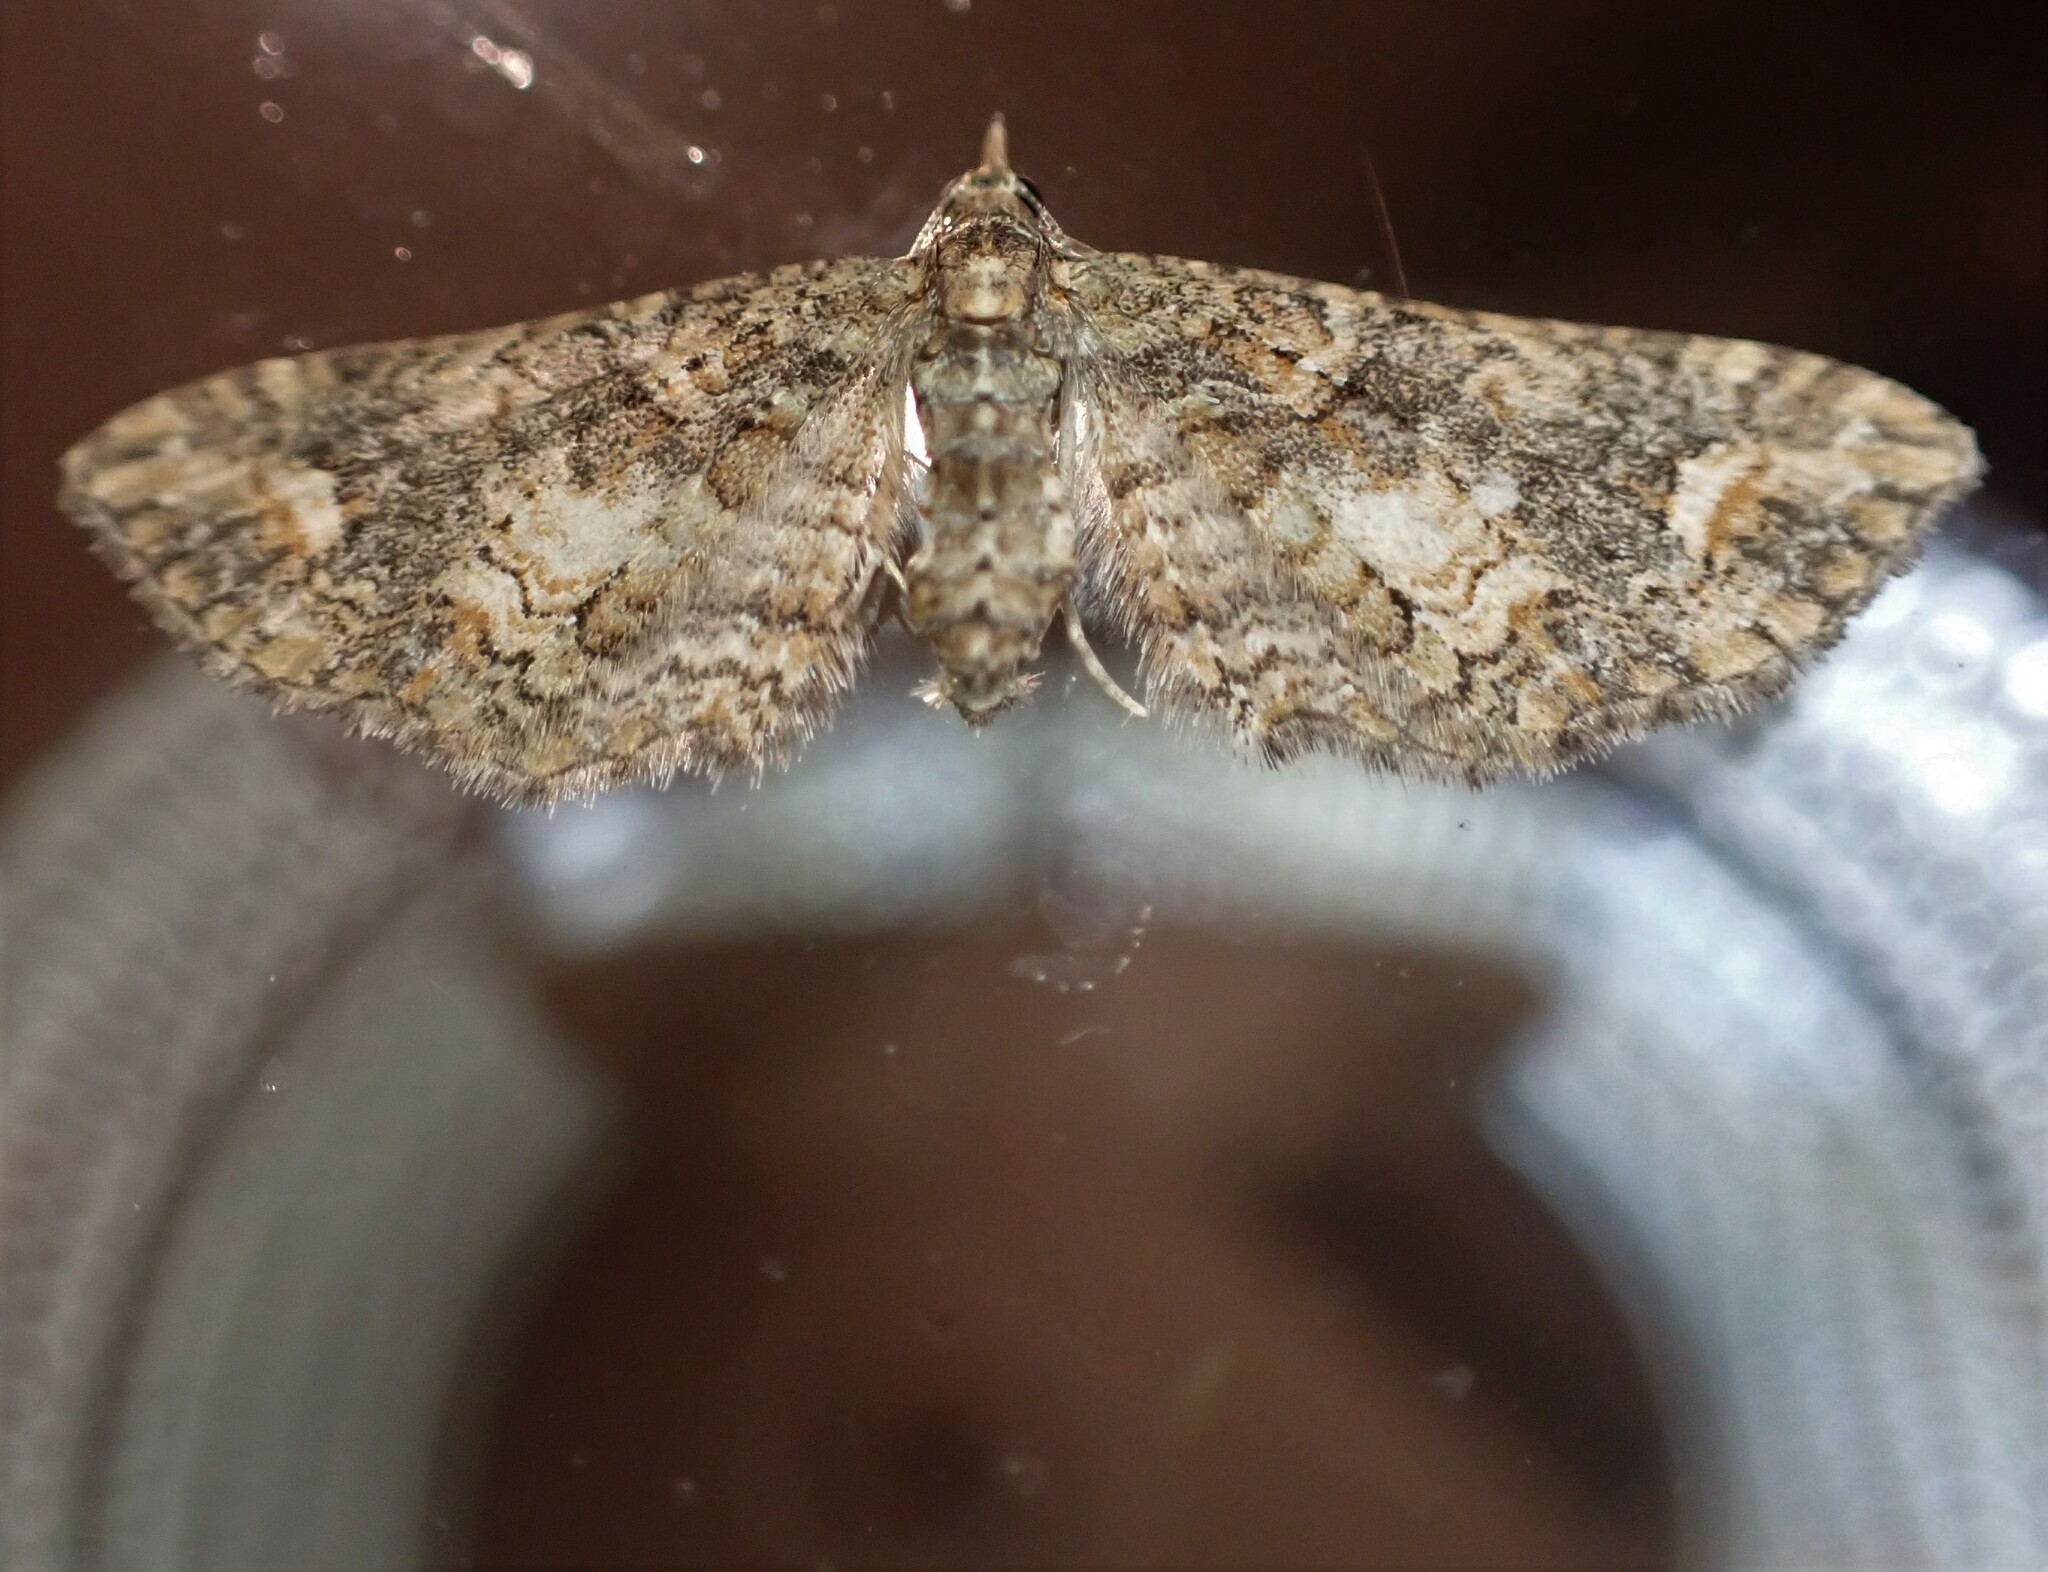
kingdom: Animalia
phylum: Arthropoda
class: Insecta
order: Lepidoptera
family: Geometridae
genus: Idaea
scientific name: Idaea mutanda
